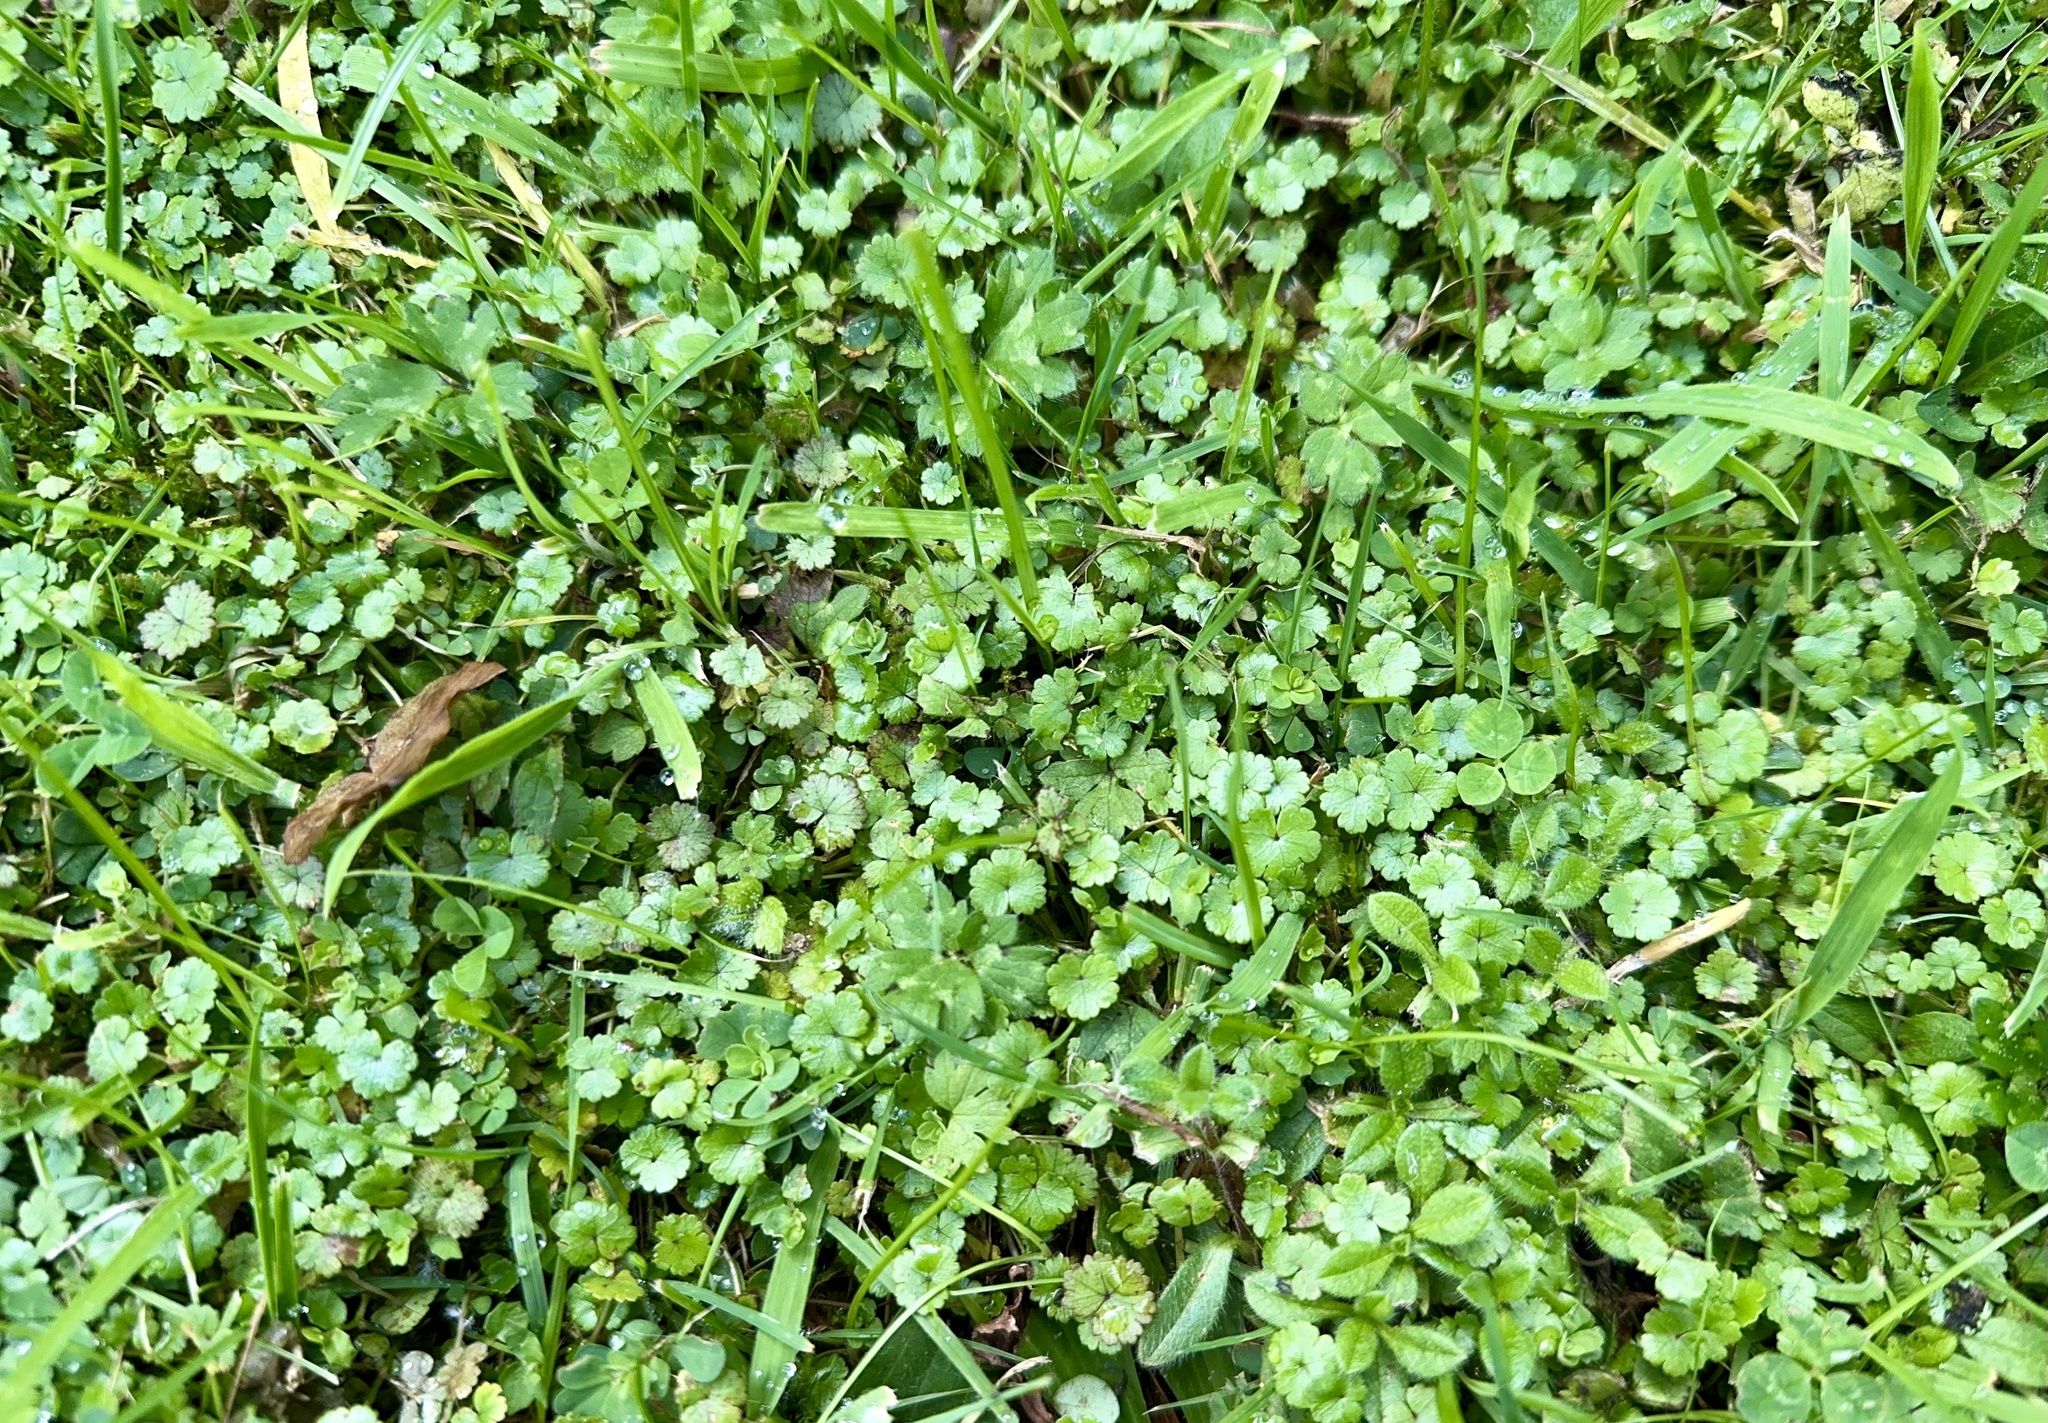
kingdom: Plantae
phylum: Tracheophyta
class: Magnoliopsida
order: Apiales
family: Araliaceae
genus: Hydrocotyle
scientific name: Hydrocotyle microphylla
